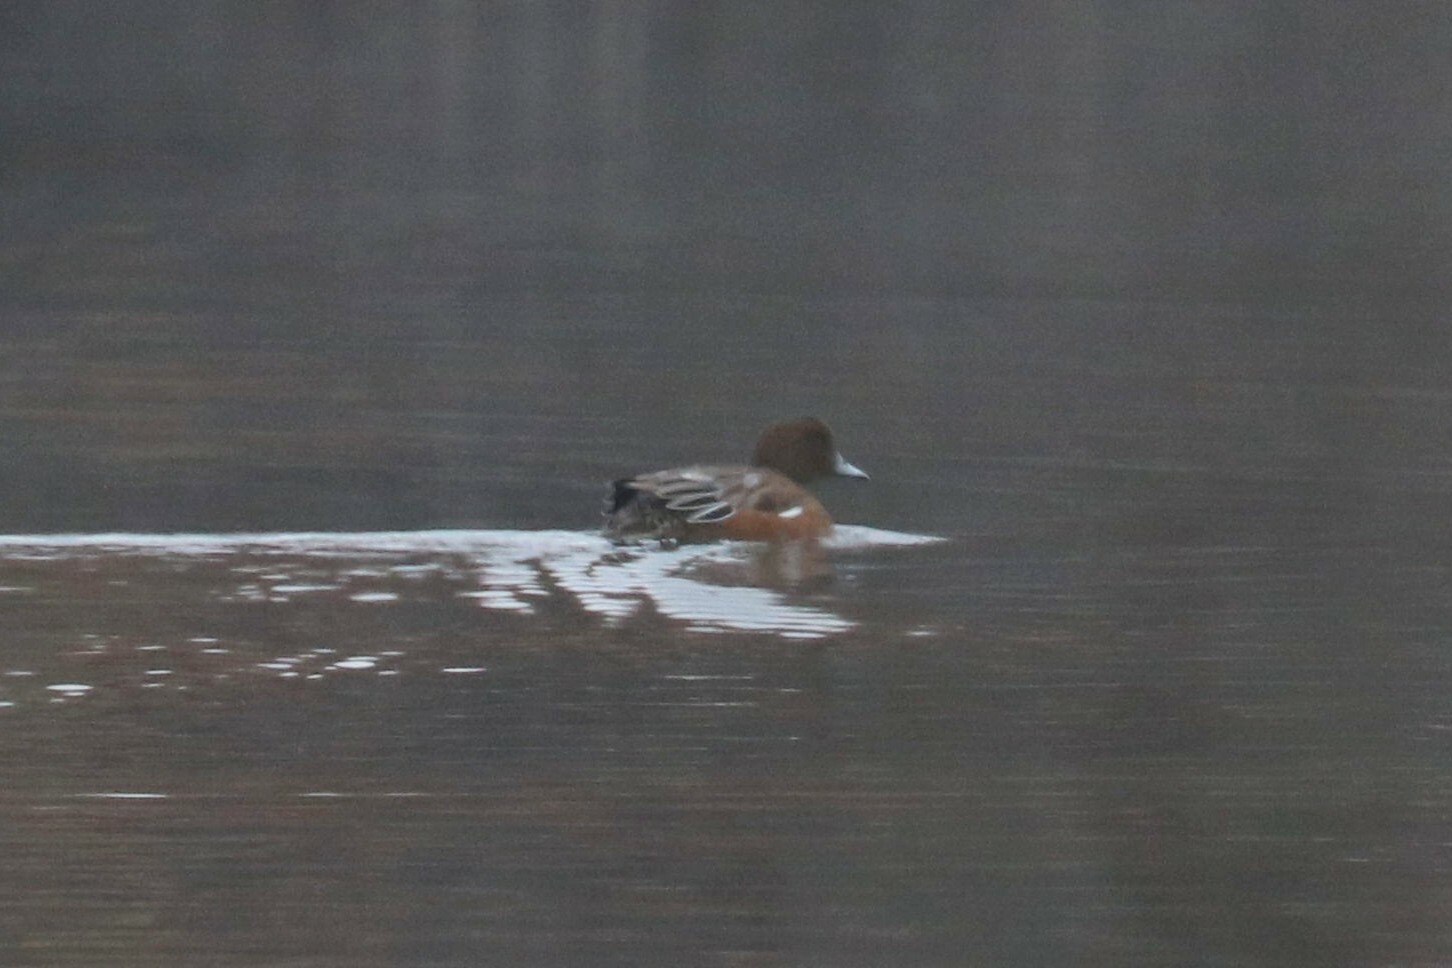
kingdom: Animalia
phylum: Chordata
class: Aves
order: Anseriformes
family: Anatidae
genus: Mareca
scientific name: Mareca penelope
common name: Eurasian wigeon
